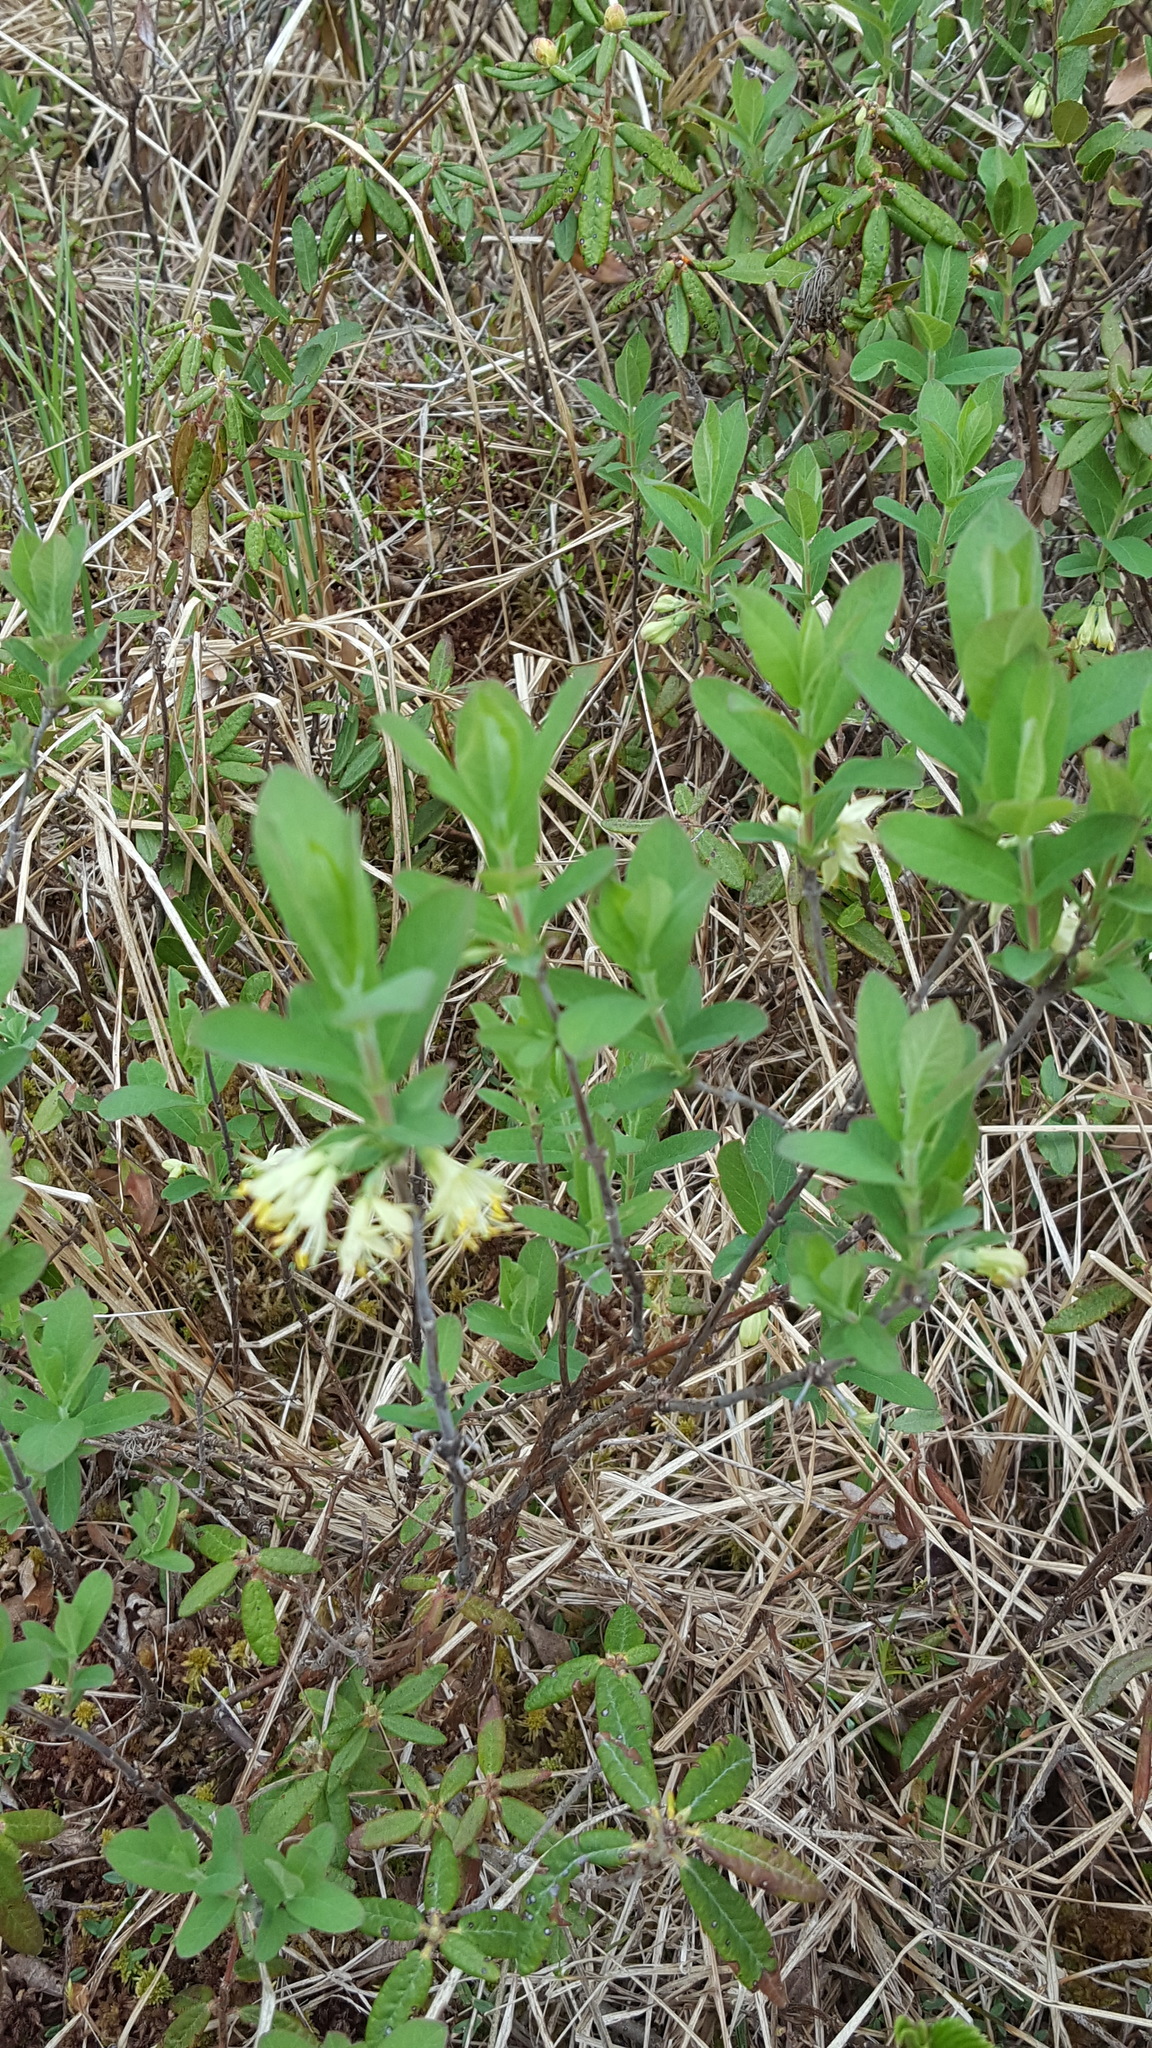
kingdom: Plantae
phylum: Tracheophyta
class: Magnoliopsida
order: Dipsacales
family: Caprifoliaceae
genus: Lonicera
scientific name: Lonicera villosa
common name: Mountain fly-honeysuckle
